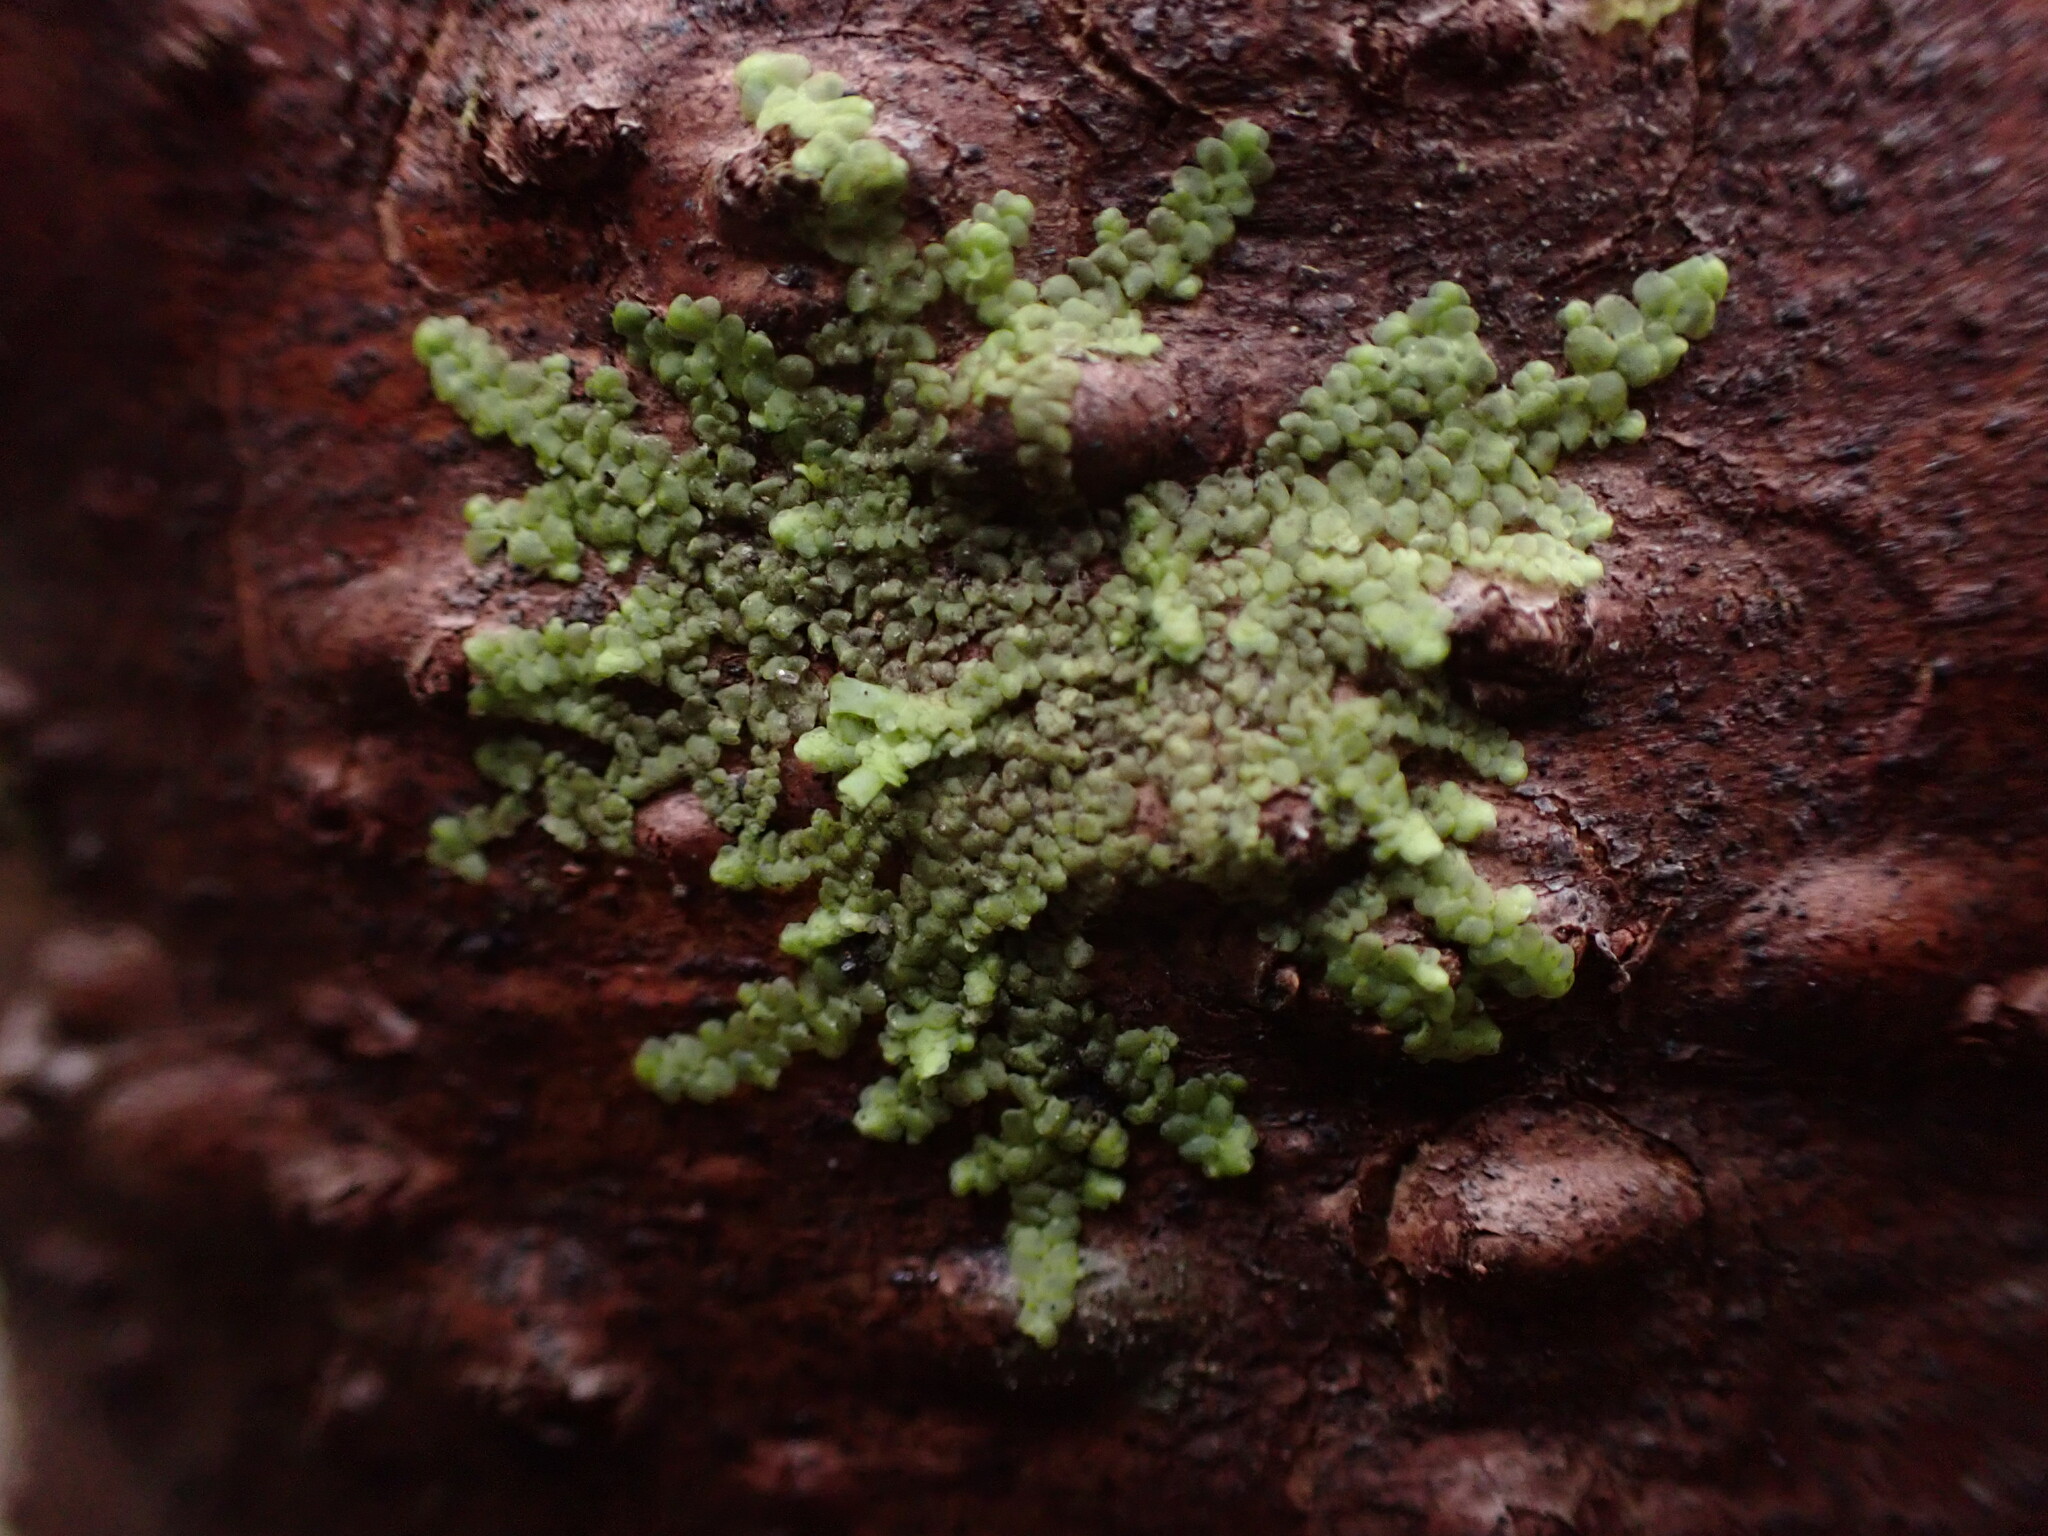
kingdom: Plantae
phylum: Marchantiophyta
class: Jungermanniopsida
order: Porellales
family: Radulaceae
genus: Radula
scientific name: Radula complanata
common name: Flat-leaved scalewort
